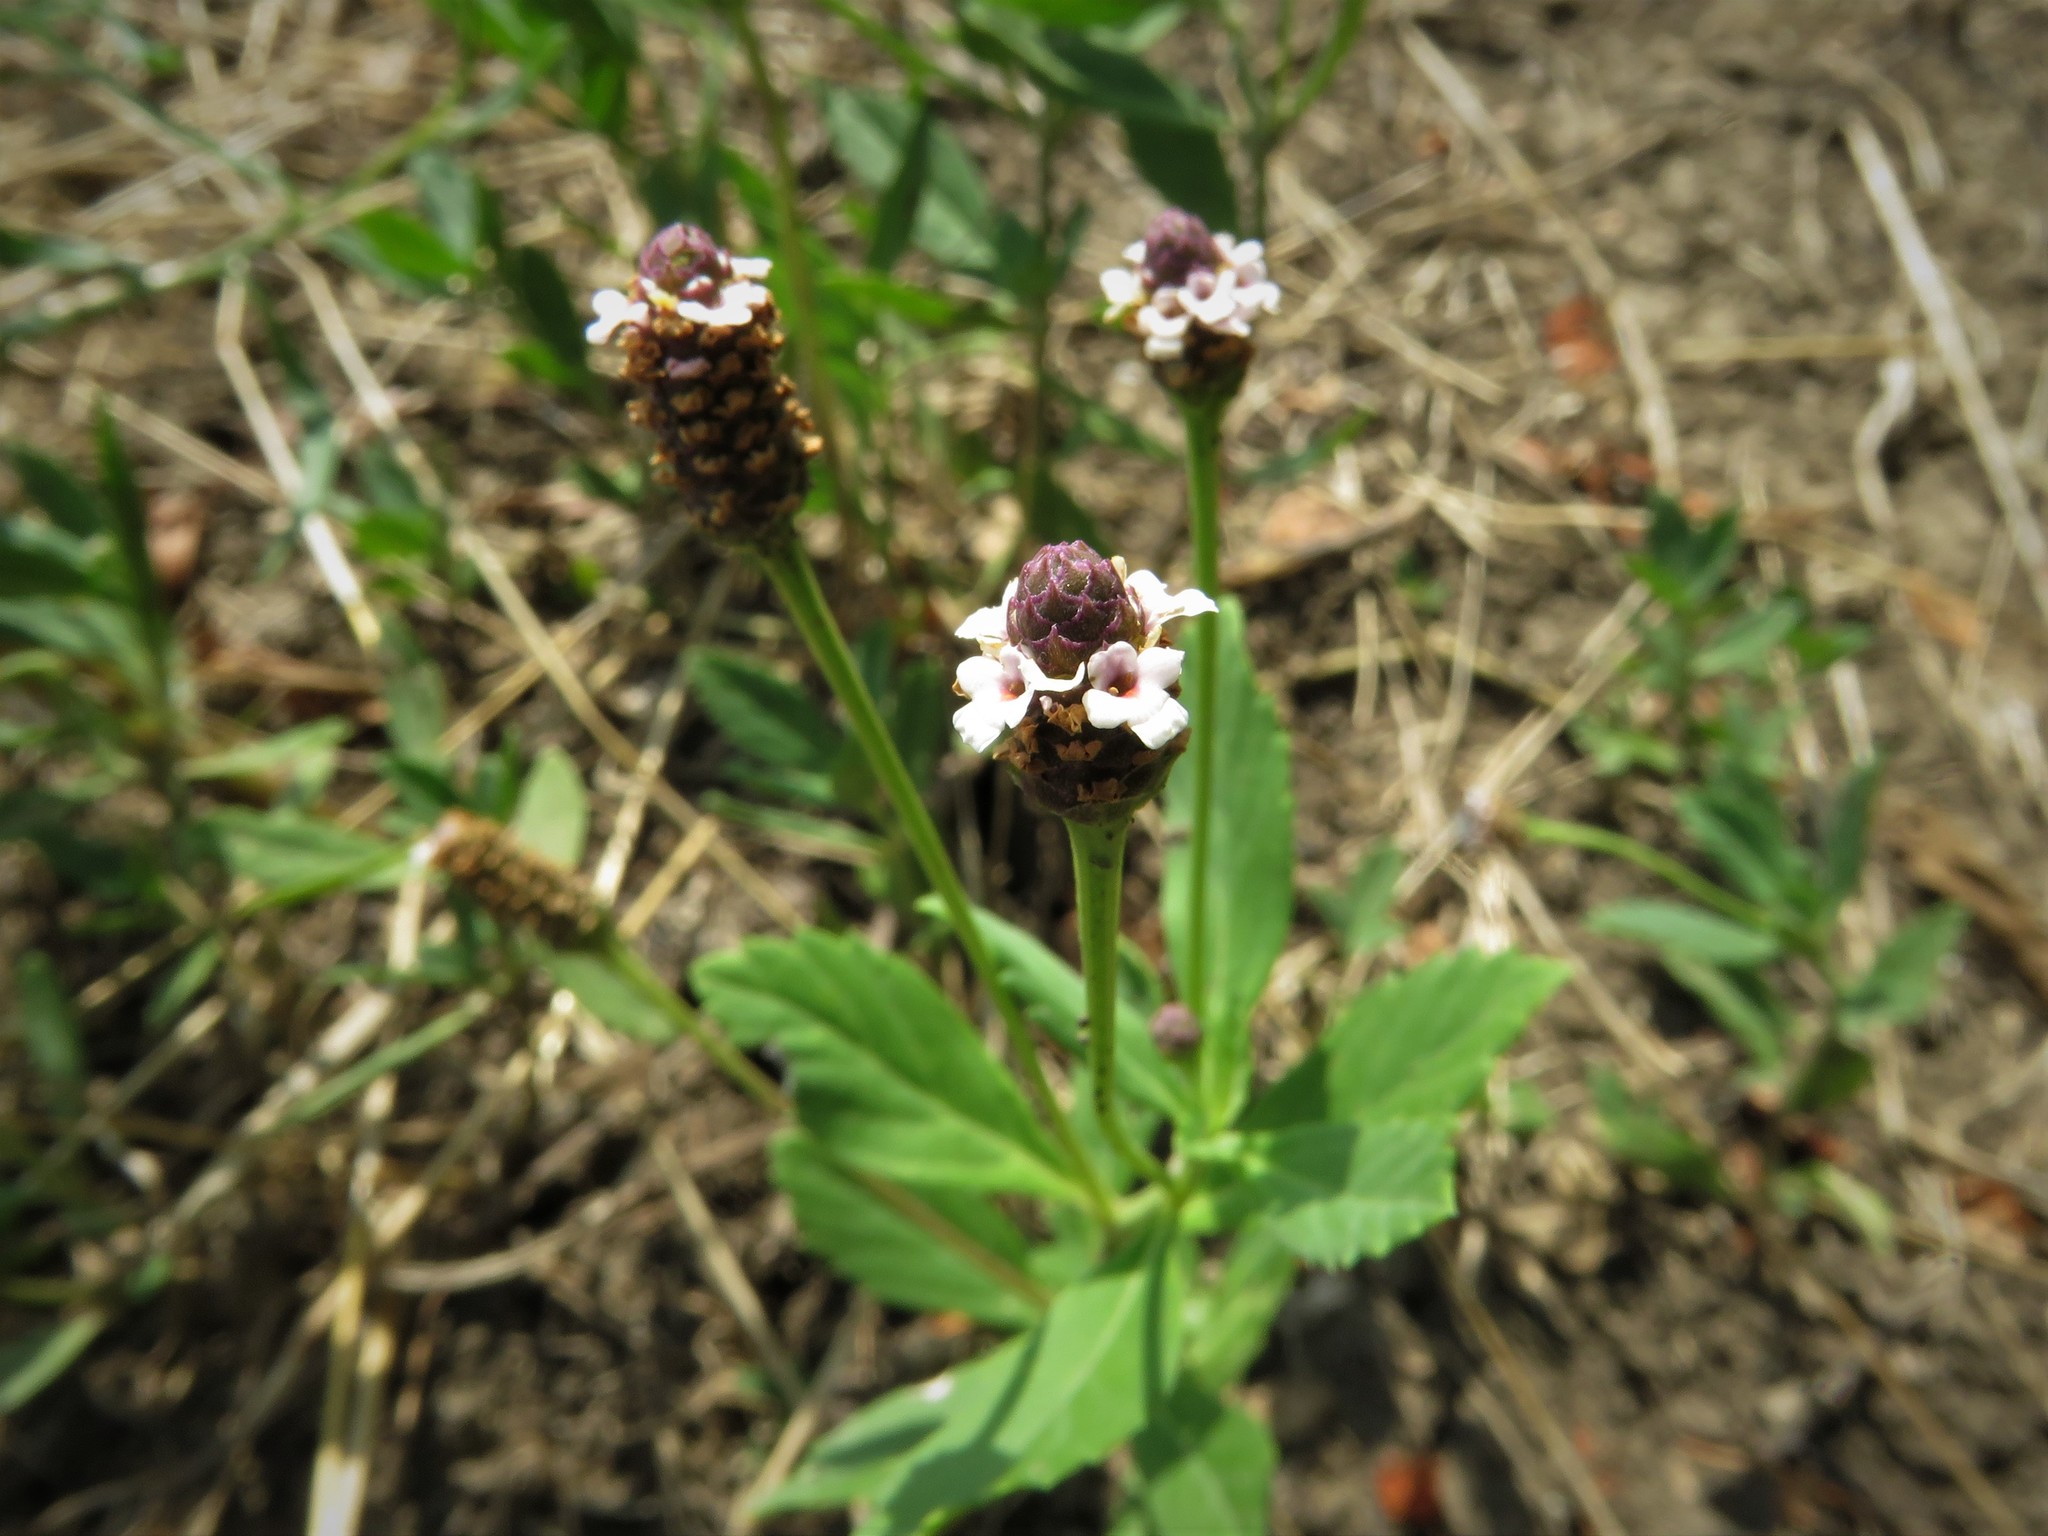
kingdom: Plantae
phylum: Tracheophyta
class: Magnoliopsida
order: Lamiales
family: Verbenaceae
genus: Phyla
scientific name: Phyla nodiflora
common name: Frogfruit
